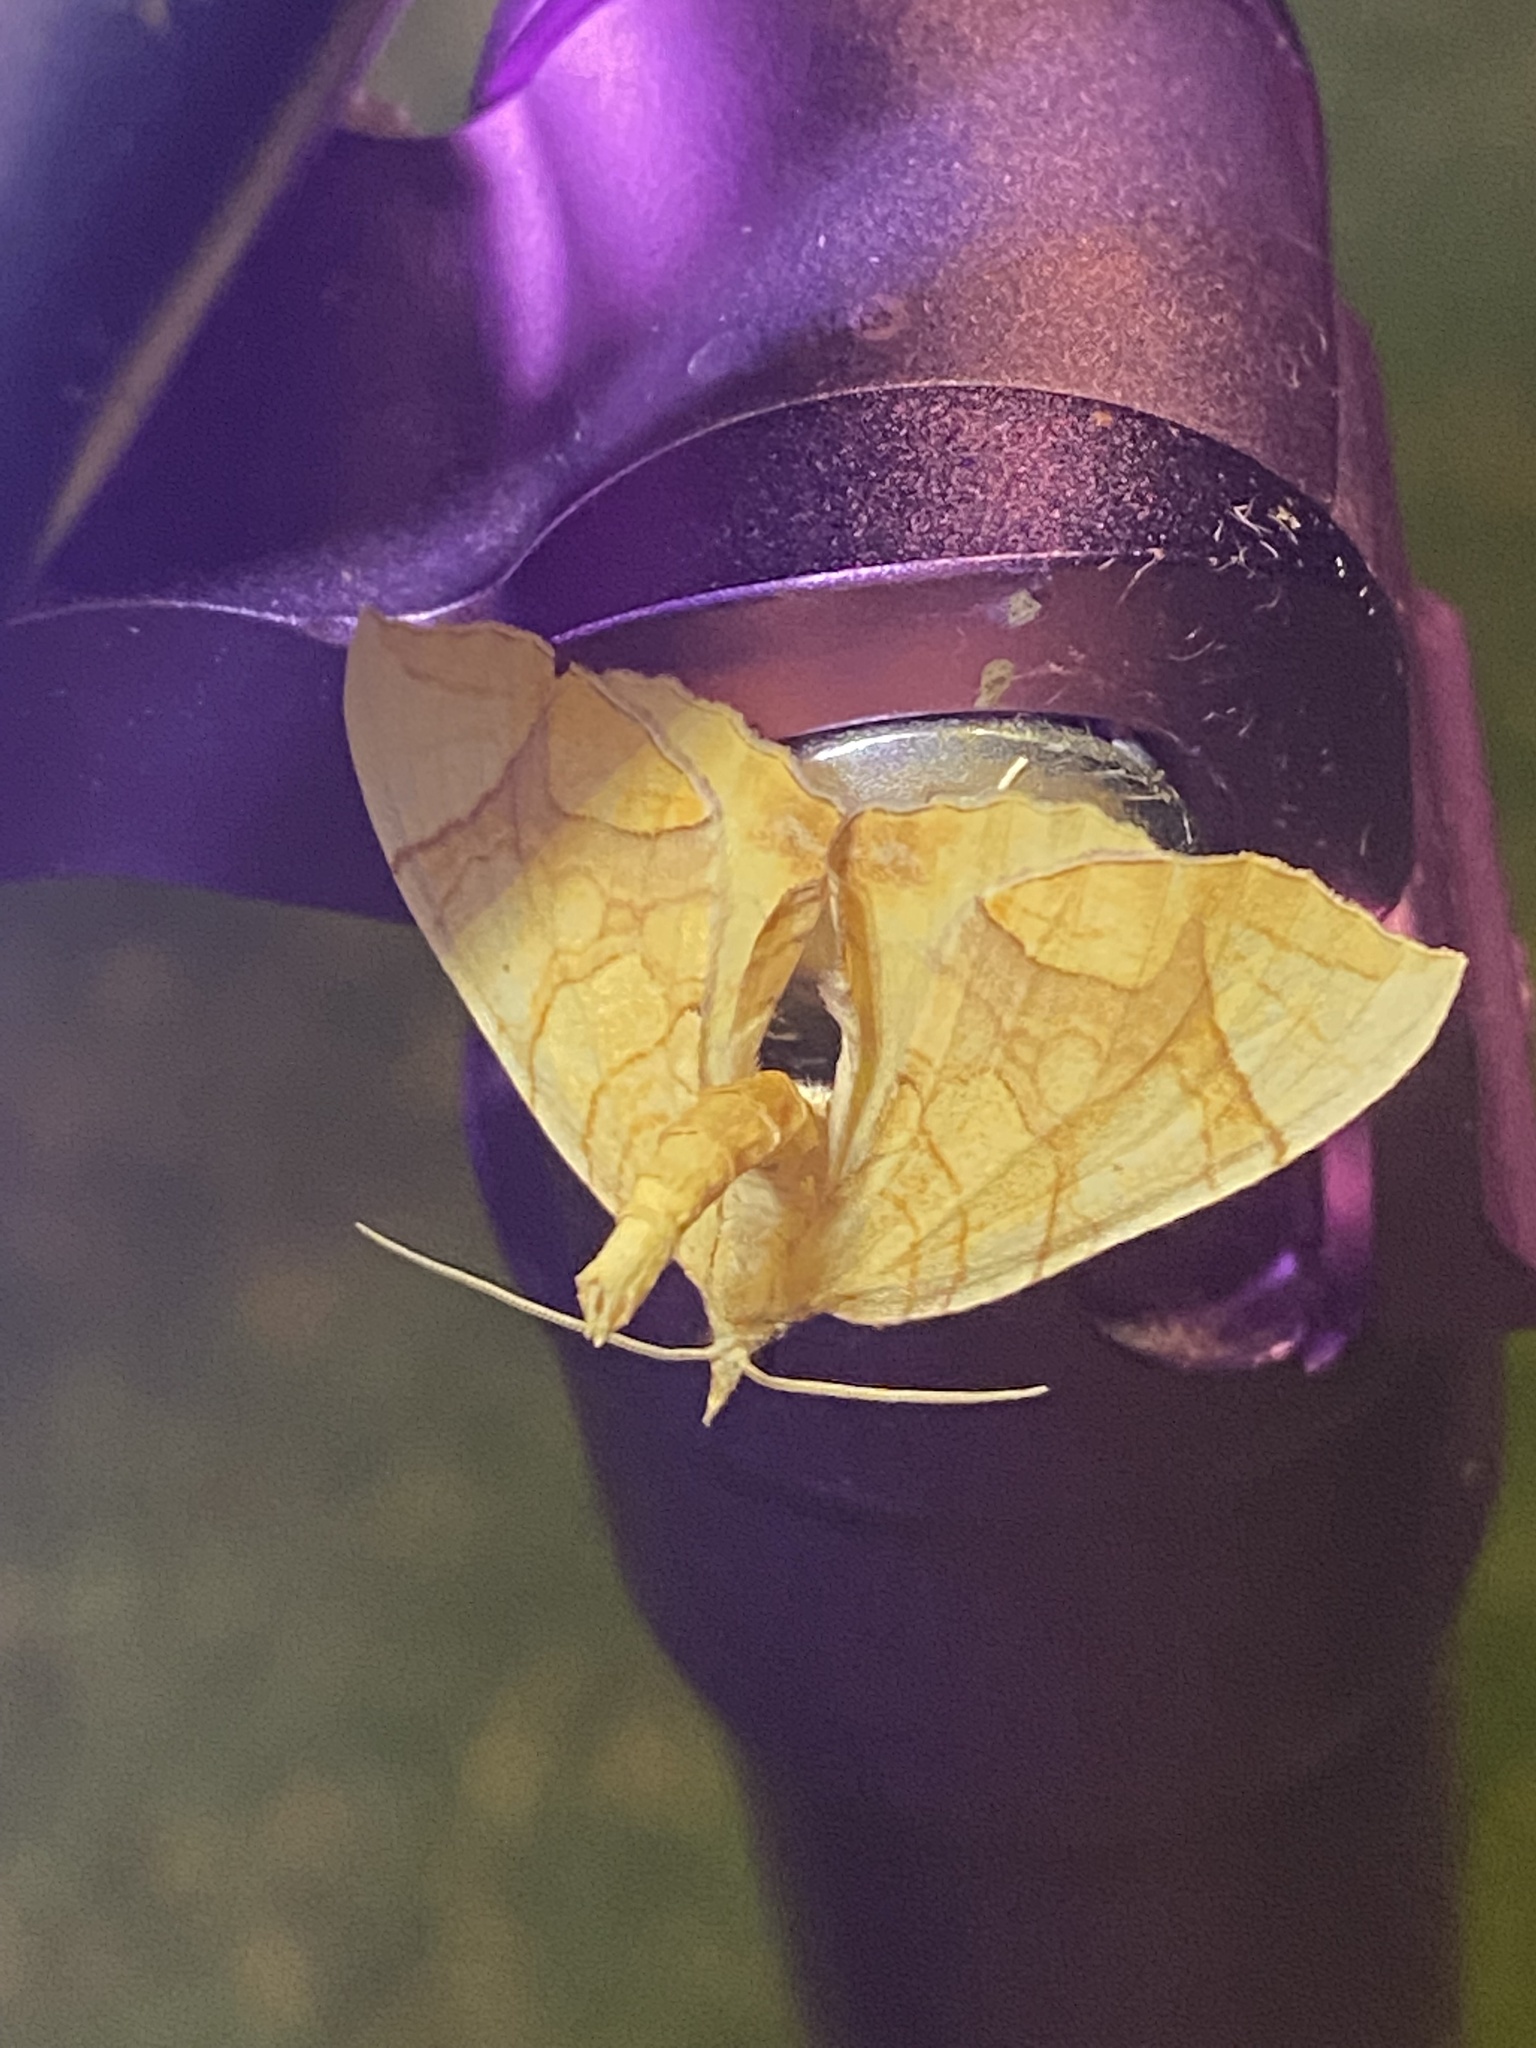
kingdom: Animalia
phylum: Arthropoda
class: Insecta
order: Lepidoptera
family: Geometridae
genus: Eulithis
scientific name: Eulithis
